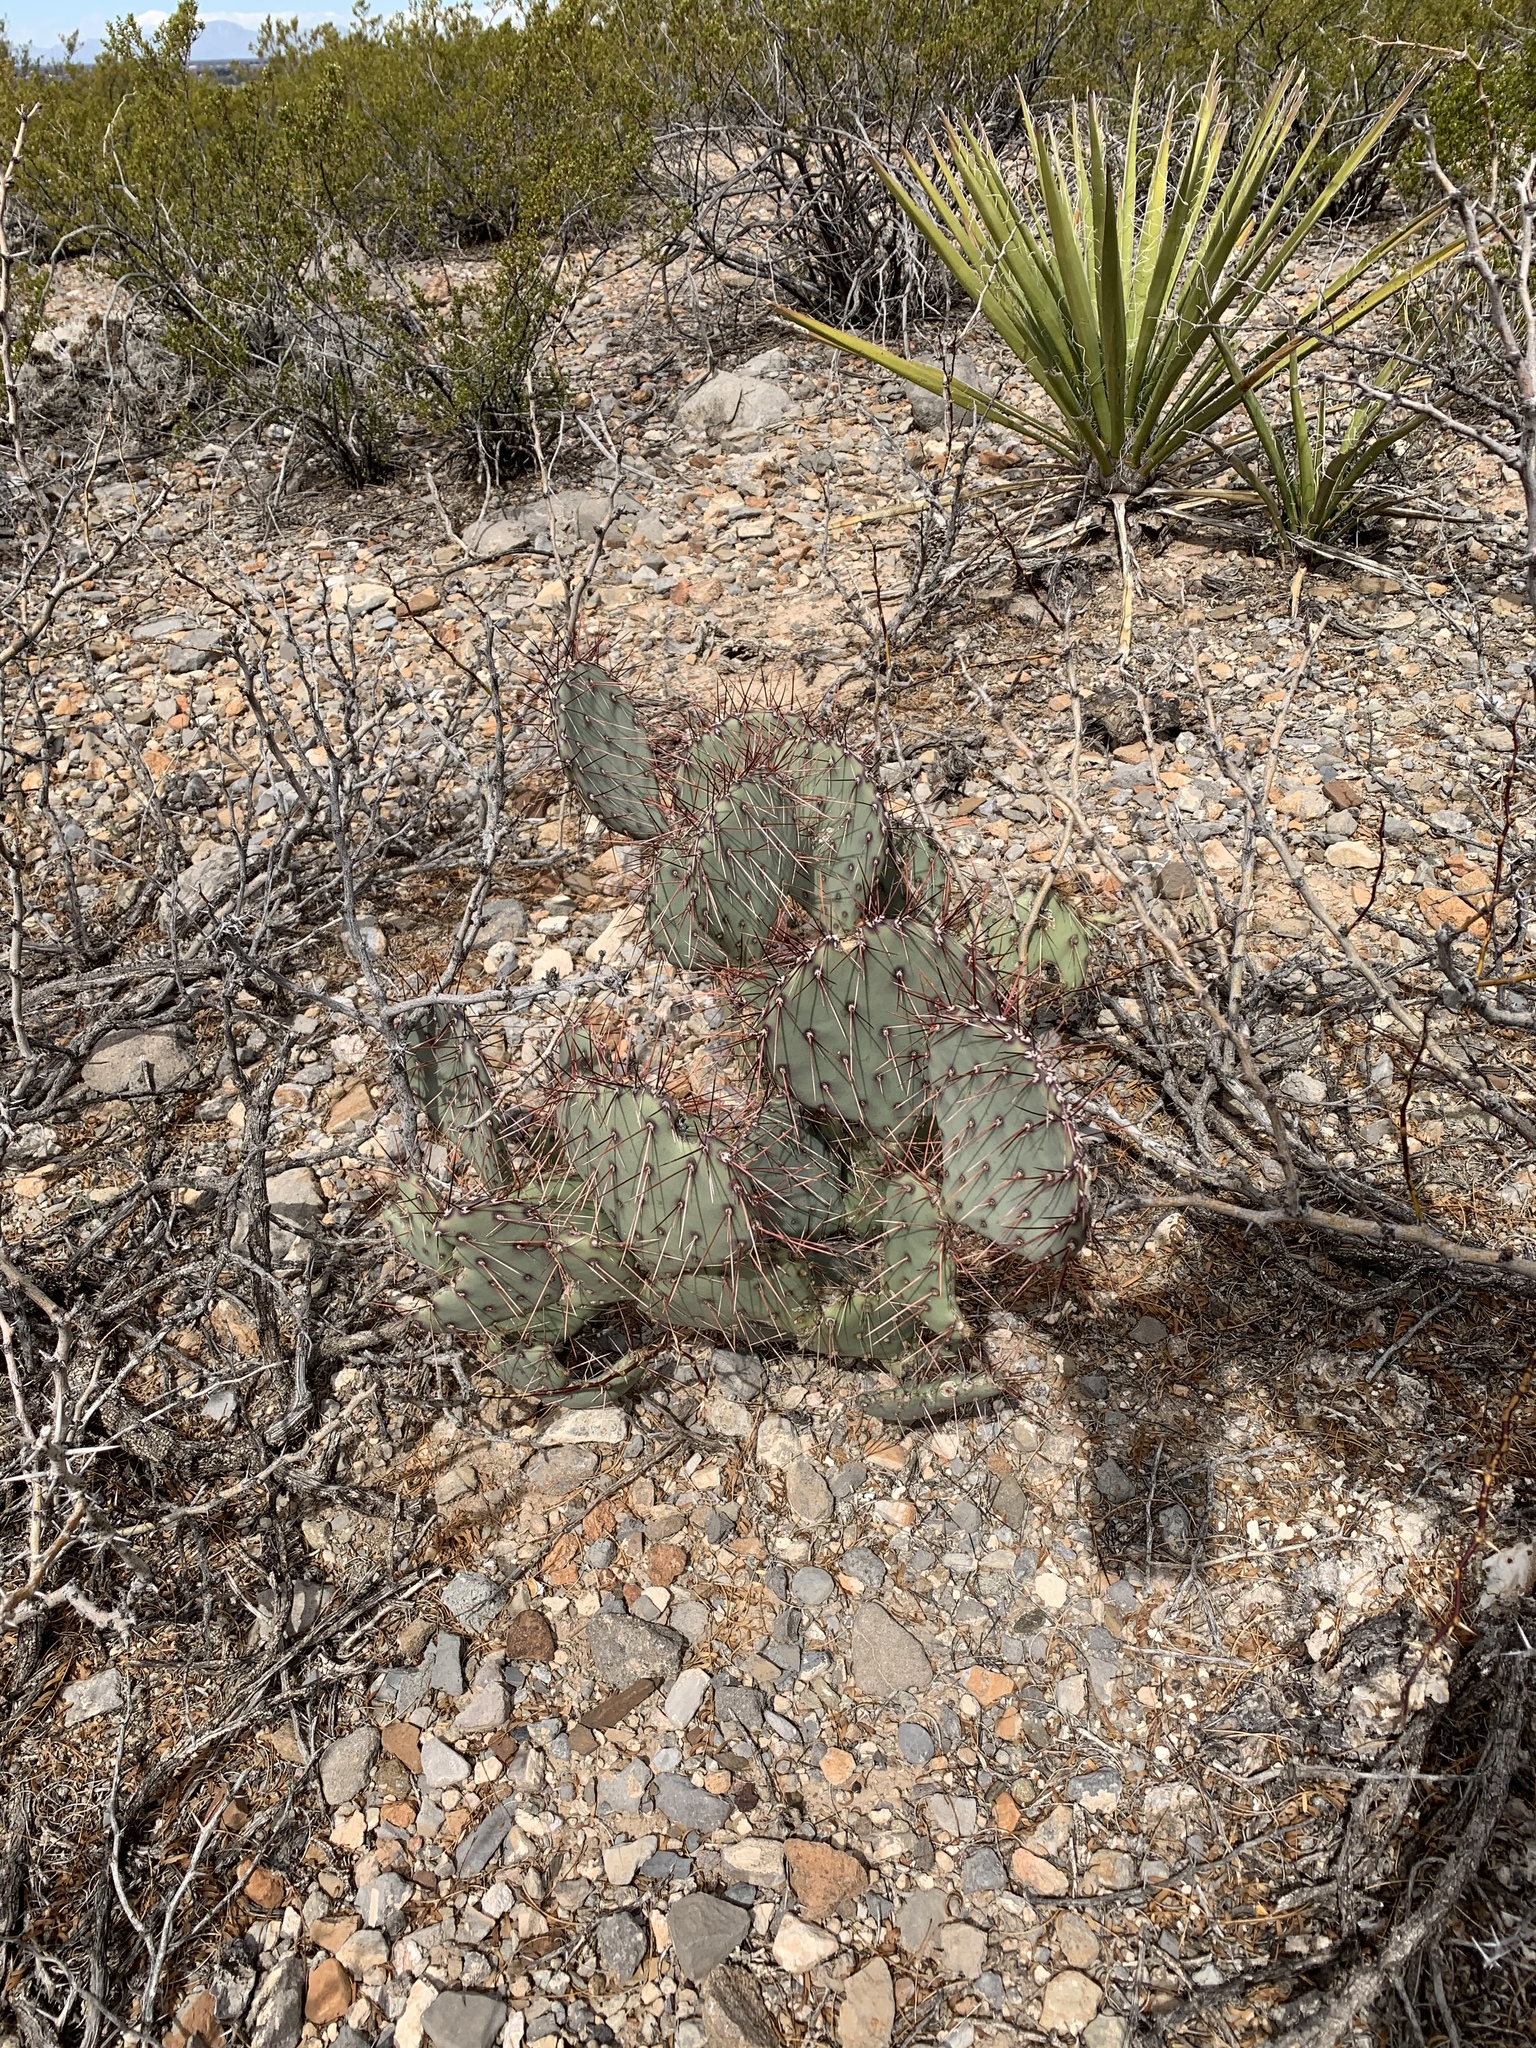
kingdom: Plantae
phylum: Tracheophyta
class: Magnoliopsida
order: Caryophyllales
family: Cactaceae
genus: Opuntia
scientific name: Opuntia macrocentra
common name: Purple prickly-pear
